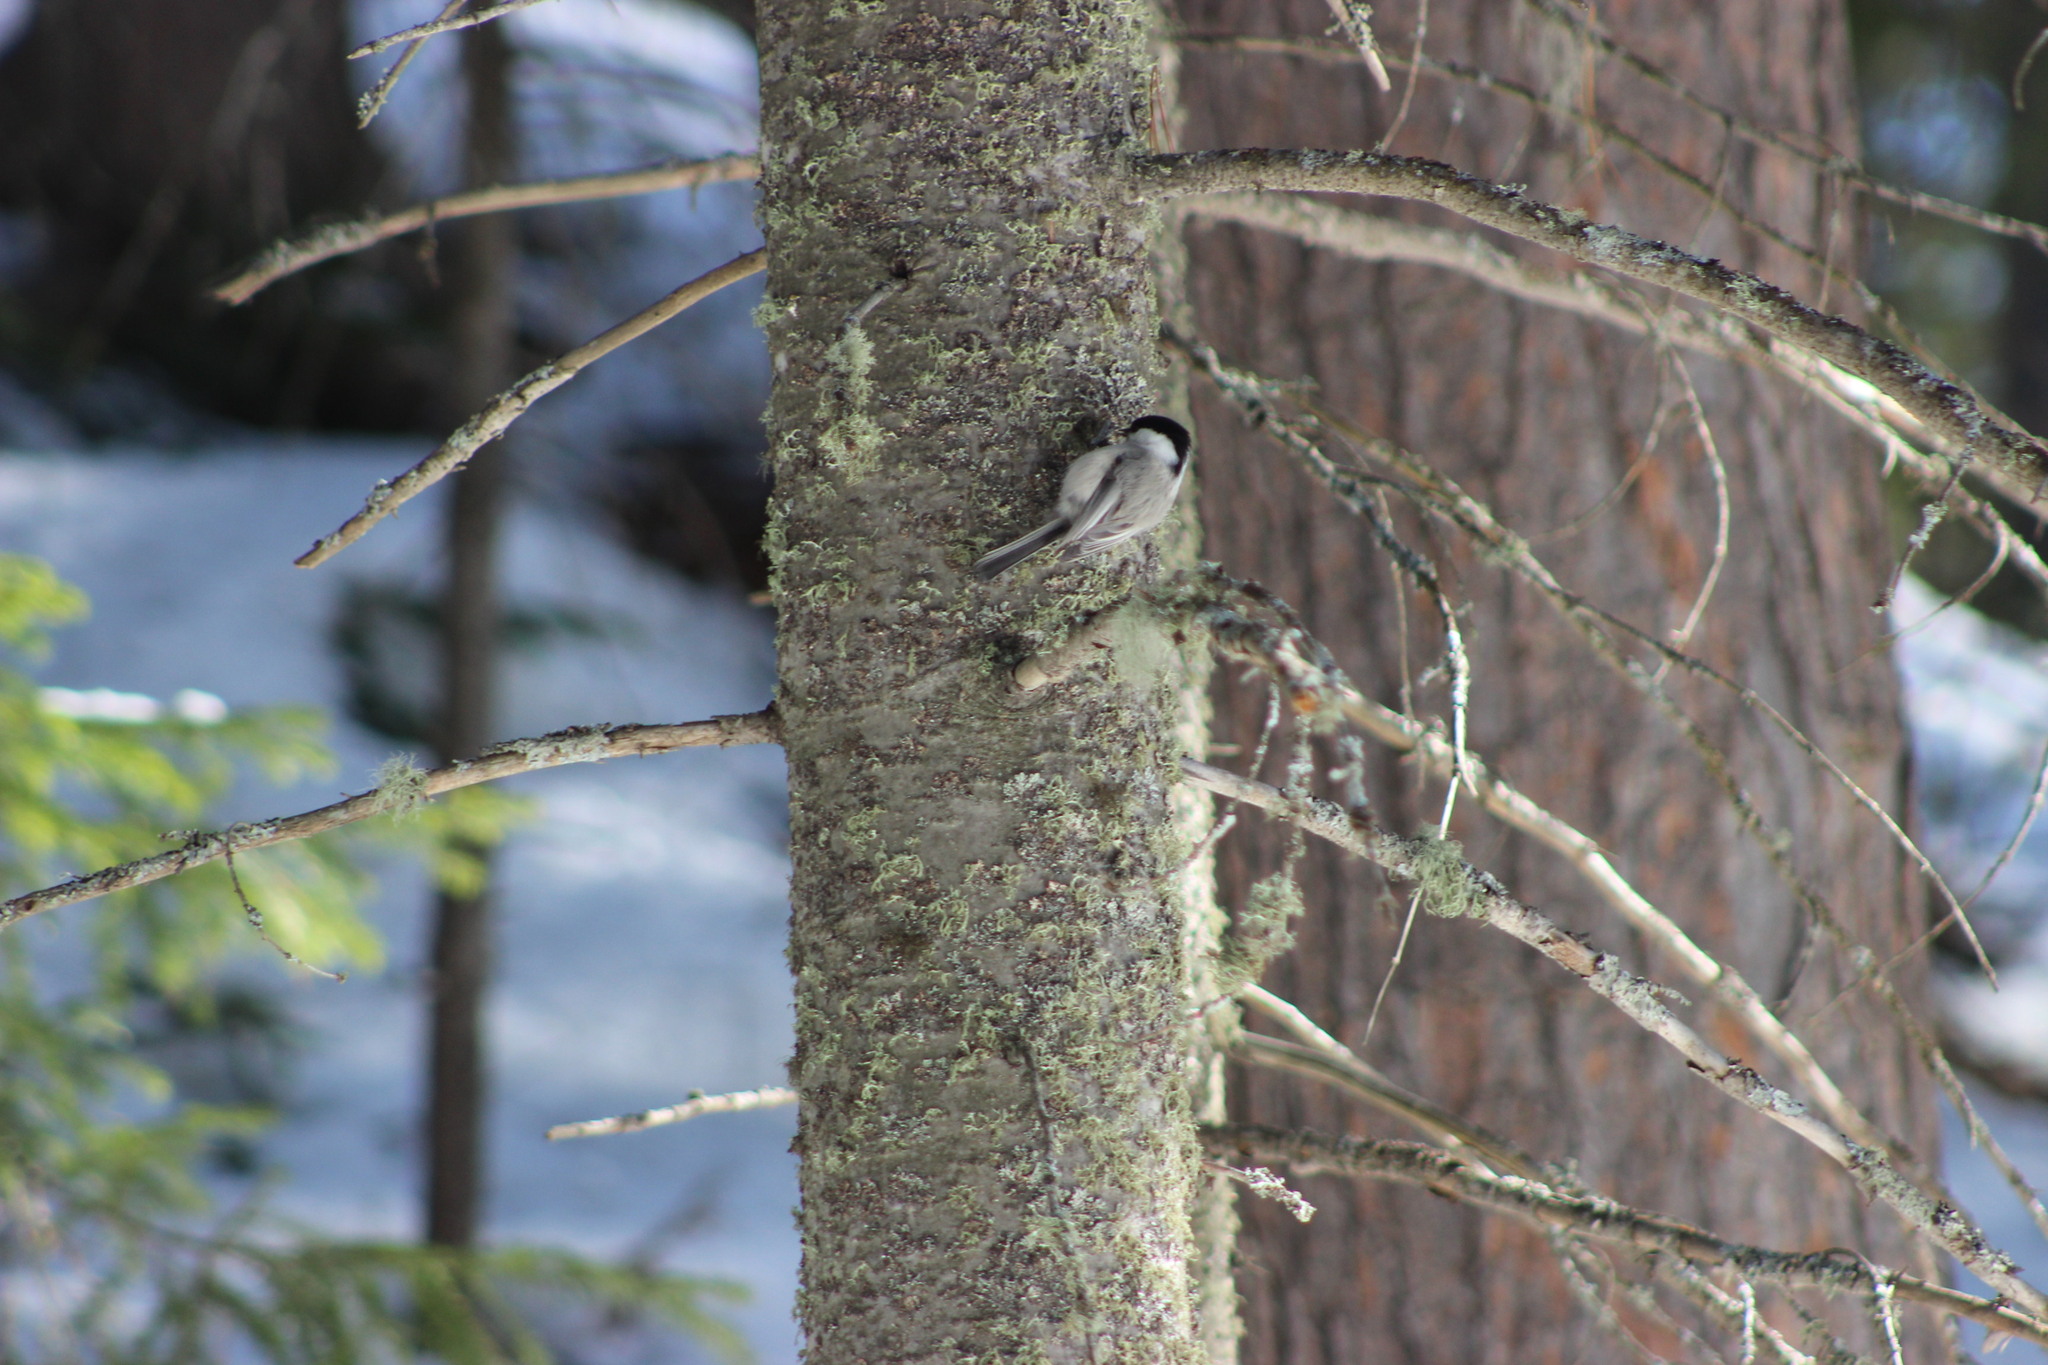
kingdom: Animalia
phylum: Chordata
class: Aves
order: Passeriformes
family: Paridae
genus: Poecile
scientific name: Poecile montanus
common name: Willow tit
